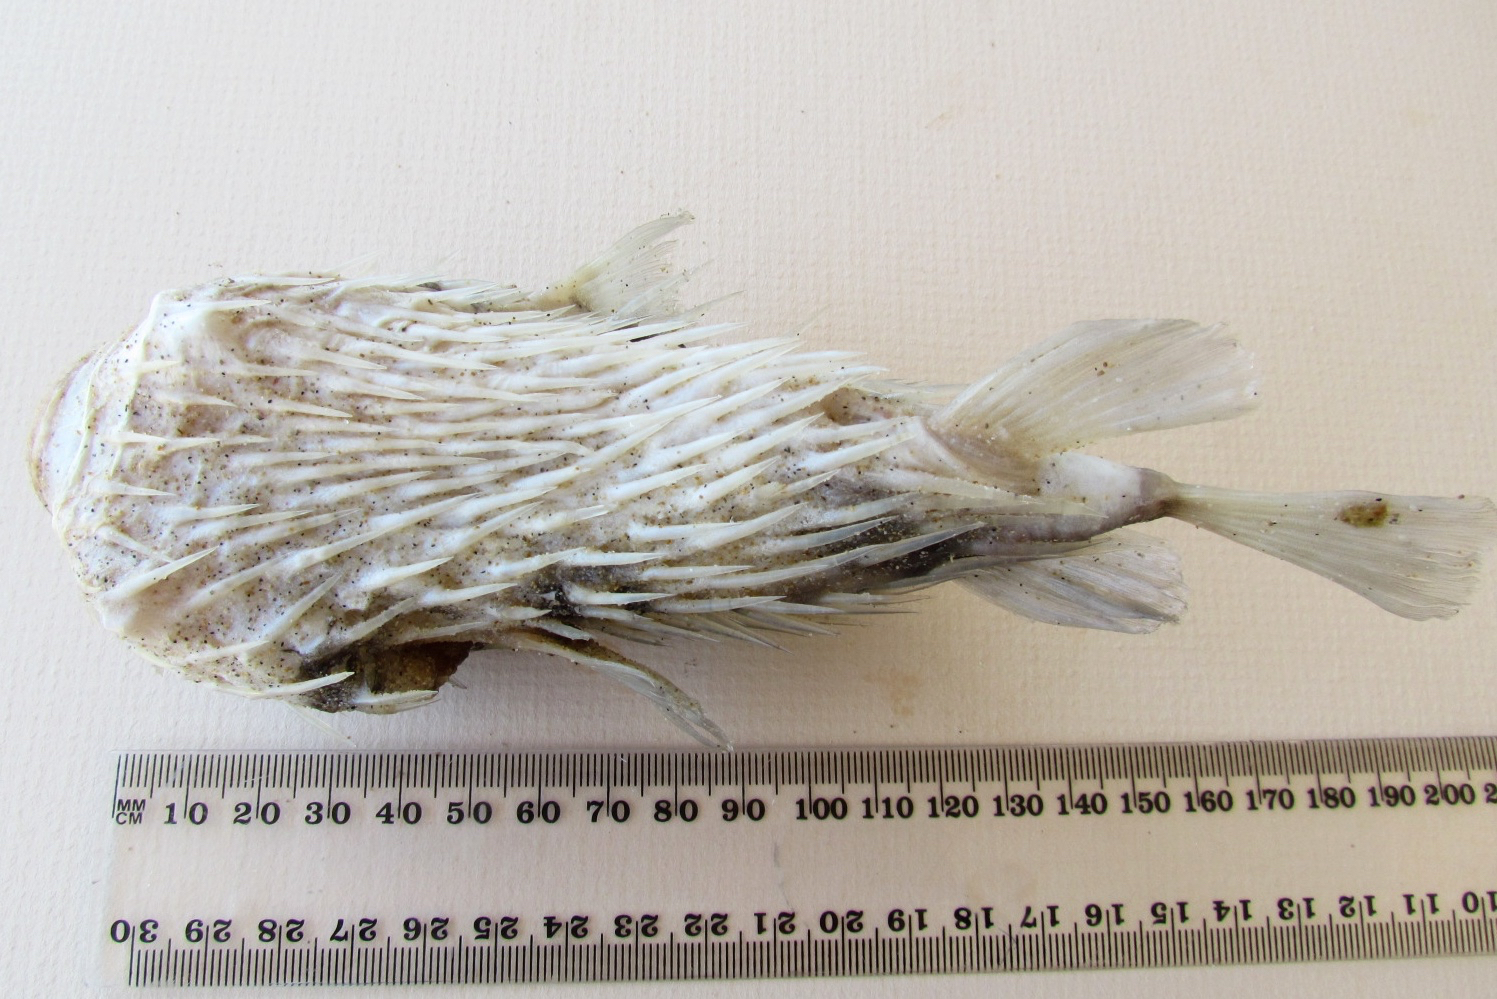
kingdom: Animalia
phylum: Chordata
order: Tetraodontiformes
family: Diodontidae
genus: Diodon
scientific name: Diodon nicthemerus
